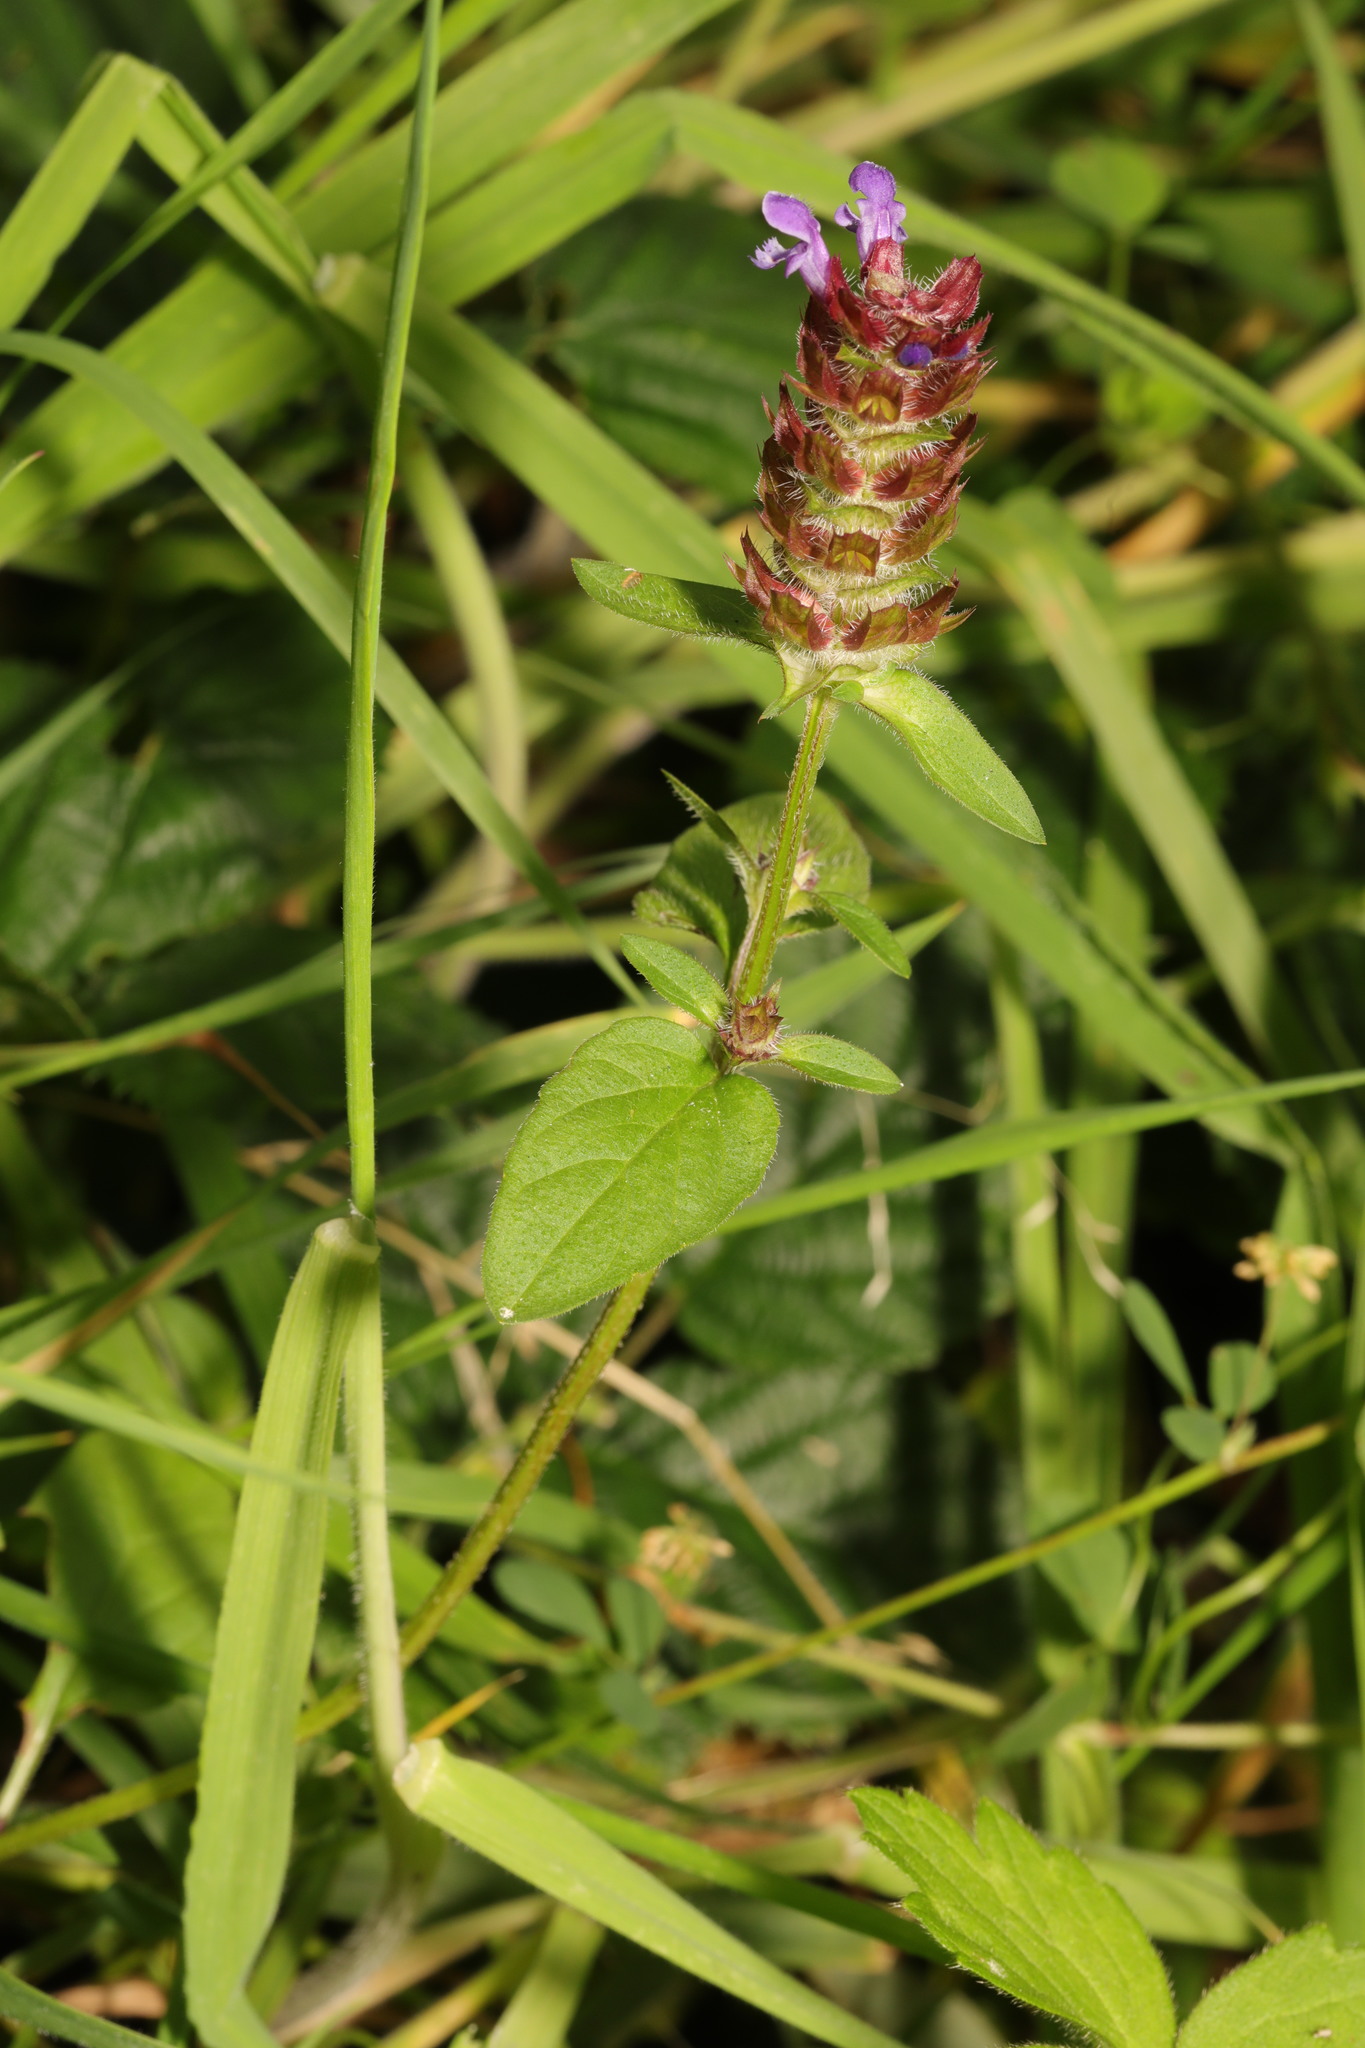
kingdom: Plantae
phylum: Tracheophyta
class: Magnoliopsida
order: Lamiales
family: Lamiaceae
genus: Prunella
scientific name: Prunella vulgaris
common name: Heal-all
